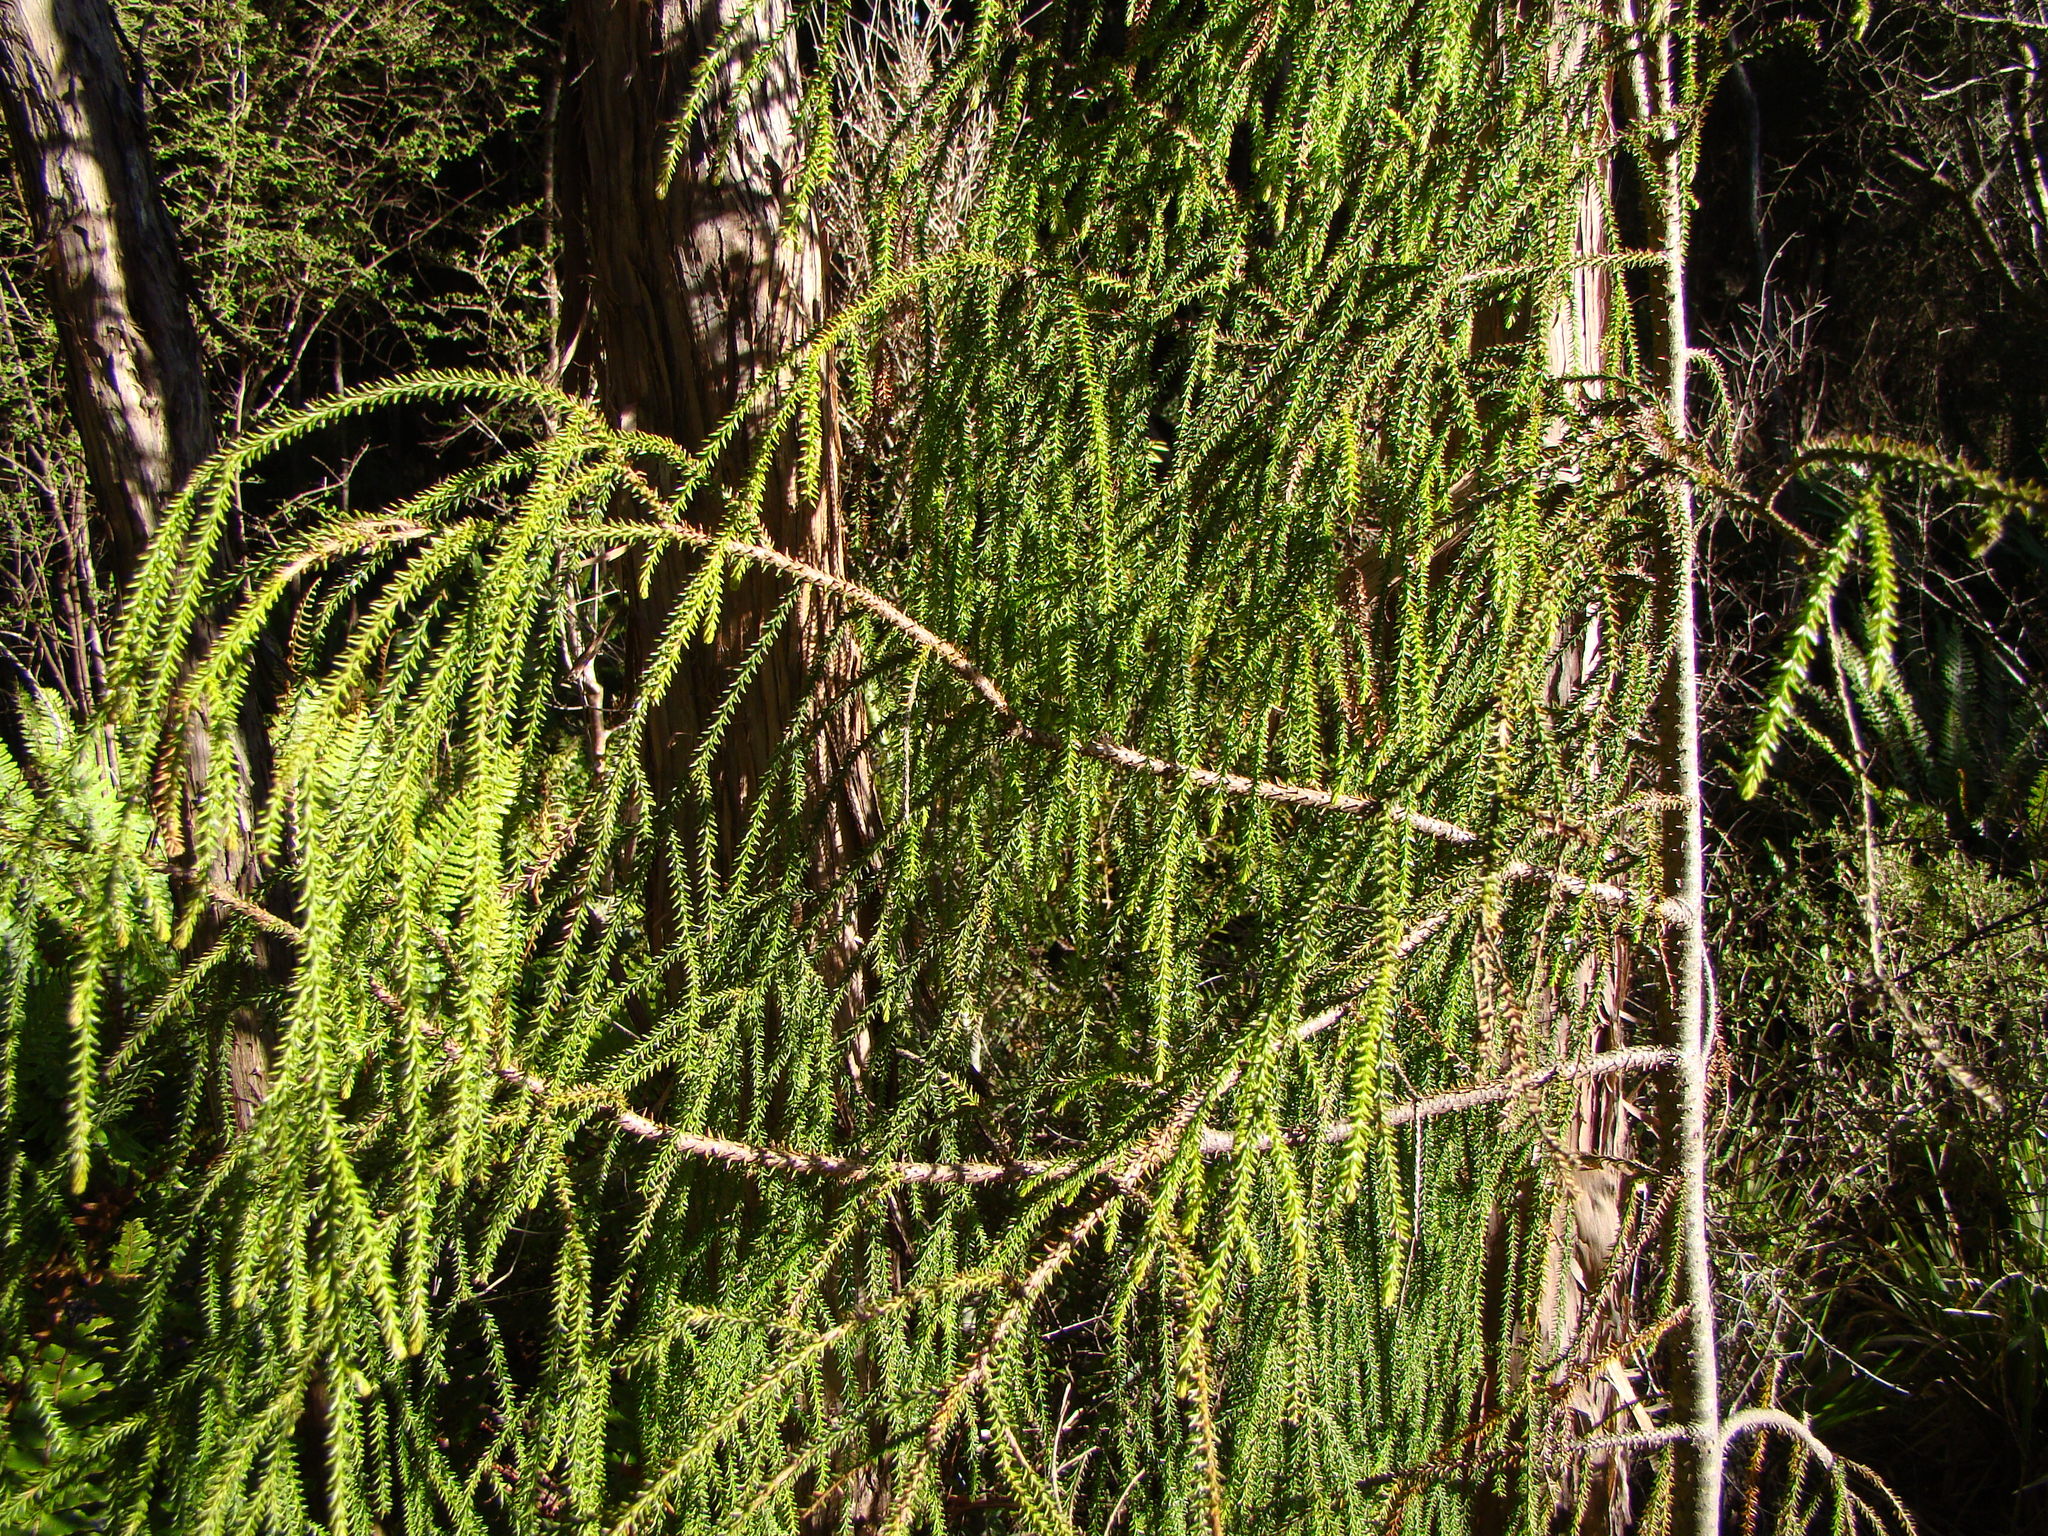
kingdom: Plantae
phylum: Tracheophyta
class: Pinopsida
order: Pinales
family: Podocarpaceae
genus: Dacrydium
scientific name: Dacrydium cupressinum
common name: Red pine
